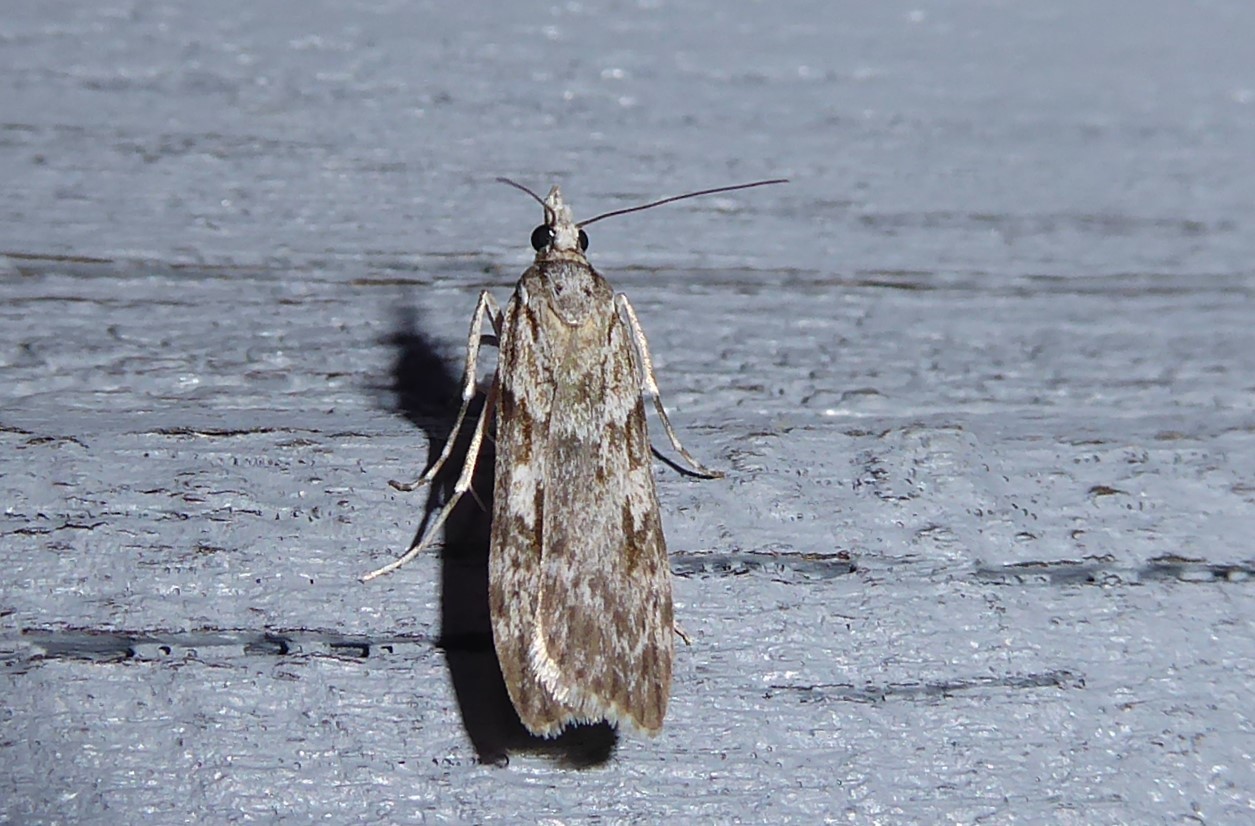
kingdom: Animalia
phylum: Arthropoda
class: Insecta
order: Lepidoptera
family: Crambidae
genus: Scoparia
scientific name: Scoparia halopis
